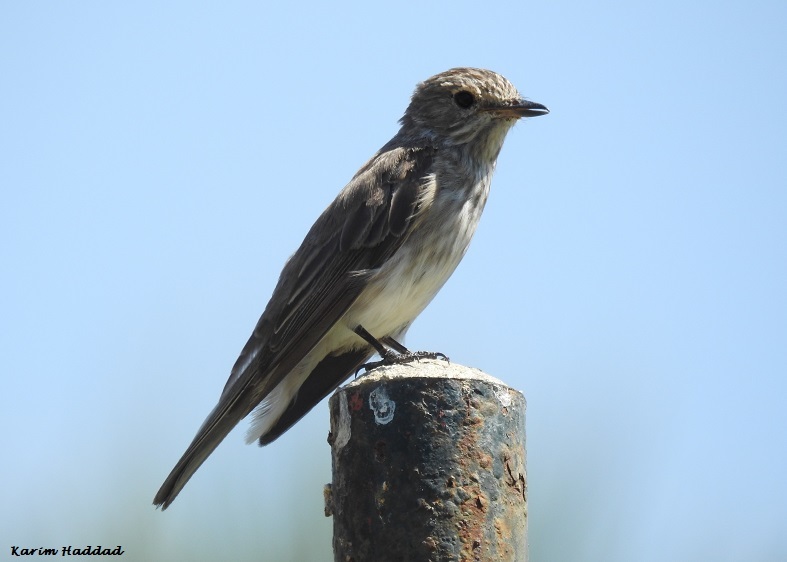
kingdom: Animalia
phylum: Chordata
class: Aves
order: Passeriformes
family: Muscicapidae
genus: Muscicapa
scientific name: Muscicapa striata
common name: Spotted flycatcher
